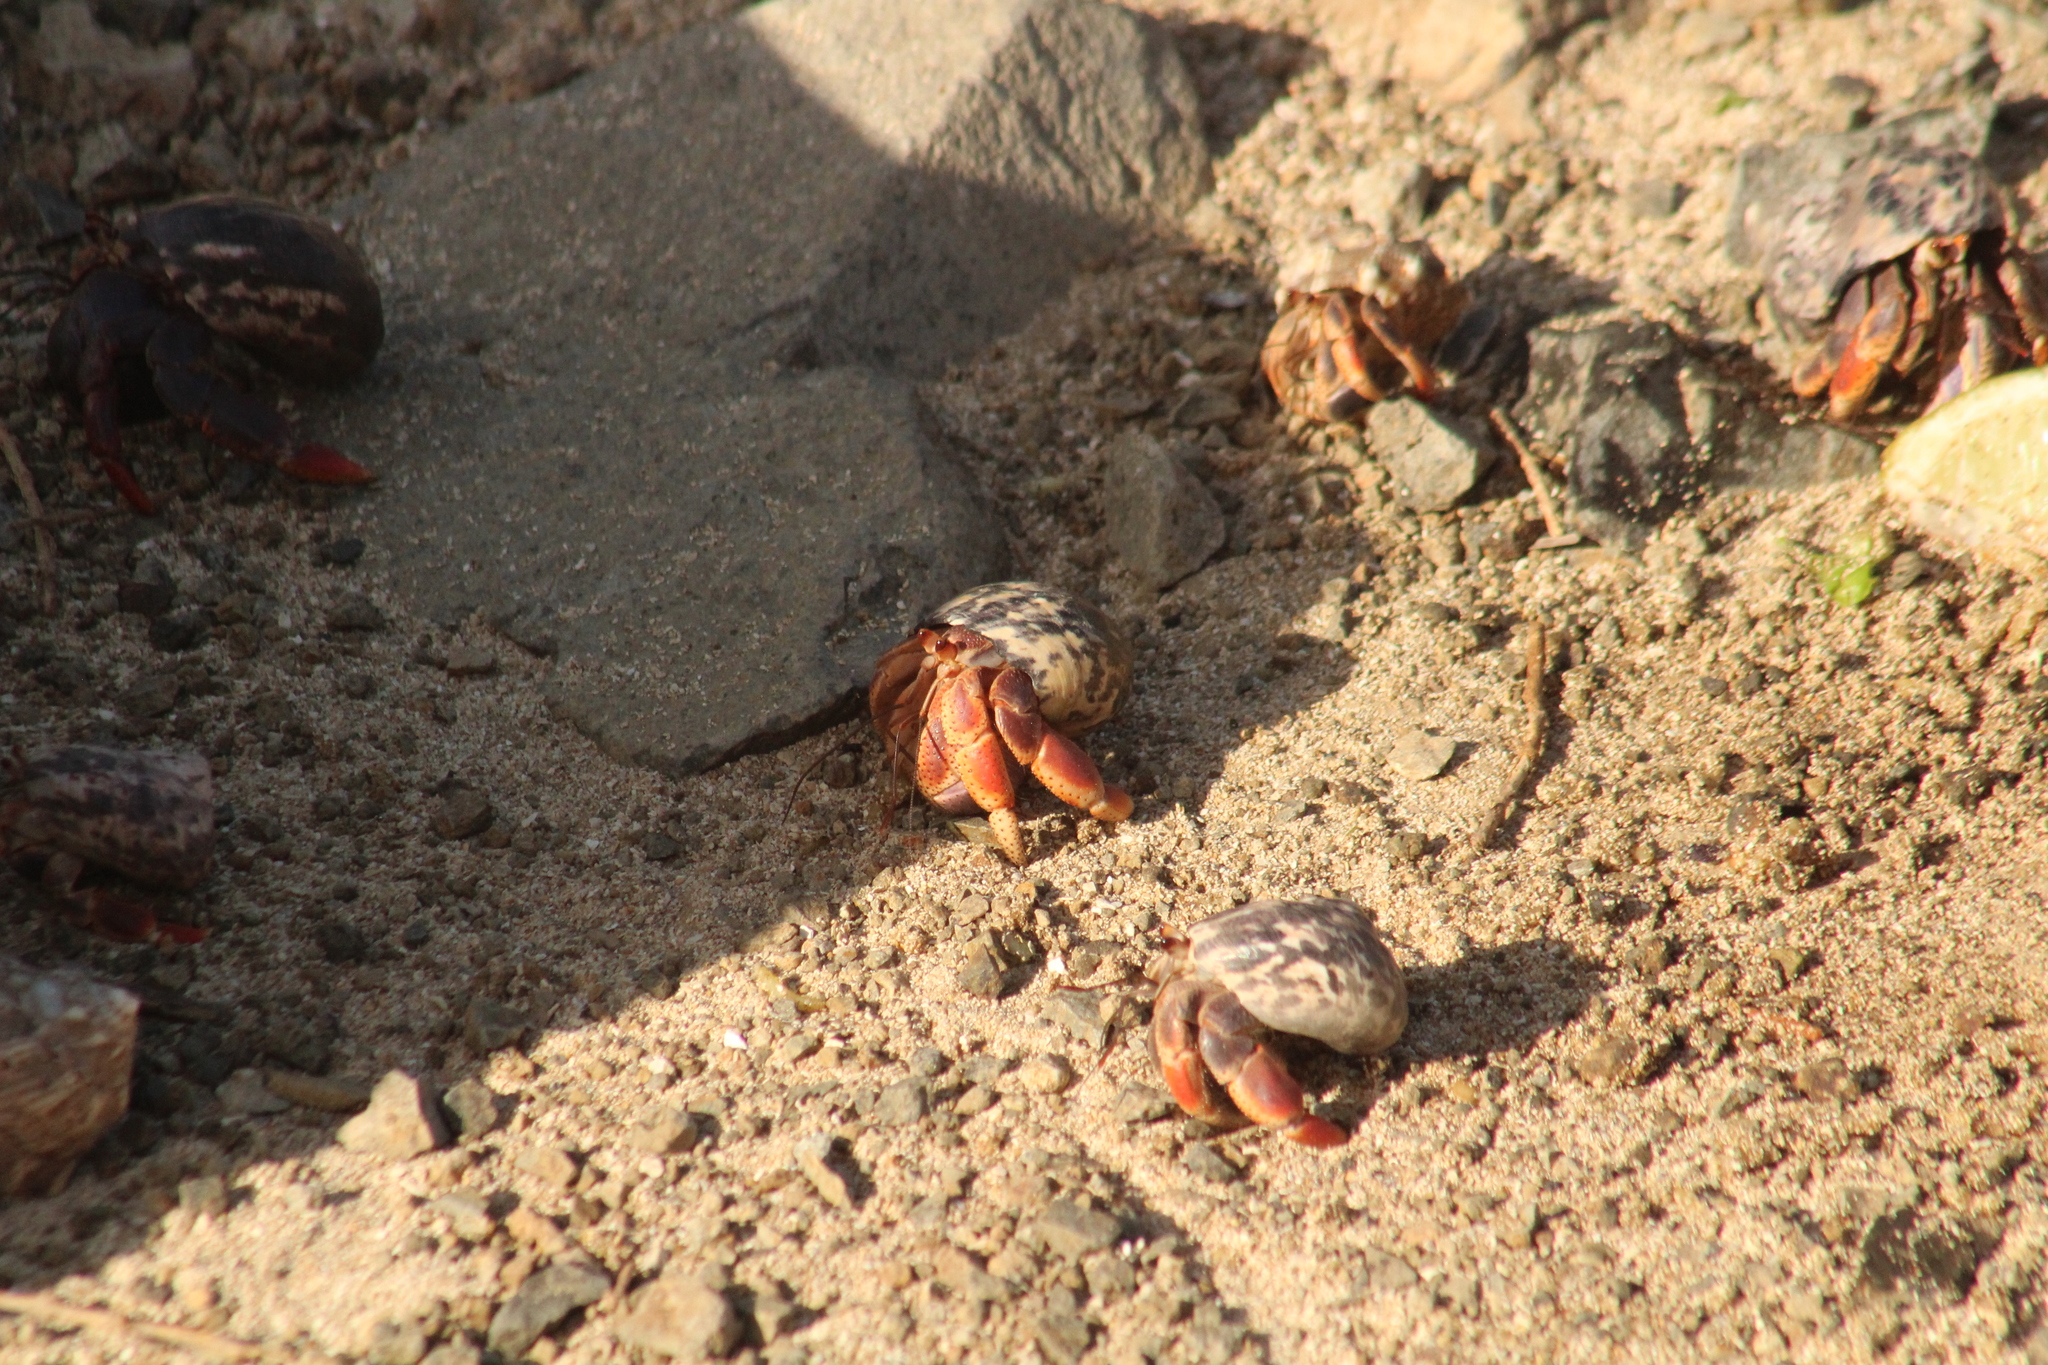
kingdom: Animalia
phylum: Arthropoda
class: Malacostraca
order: Decapoda
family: Coenobitidae
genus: Coenobita
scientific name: Coenobita clypeatus
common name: Caribbean hermit crab
